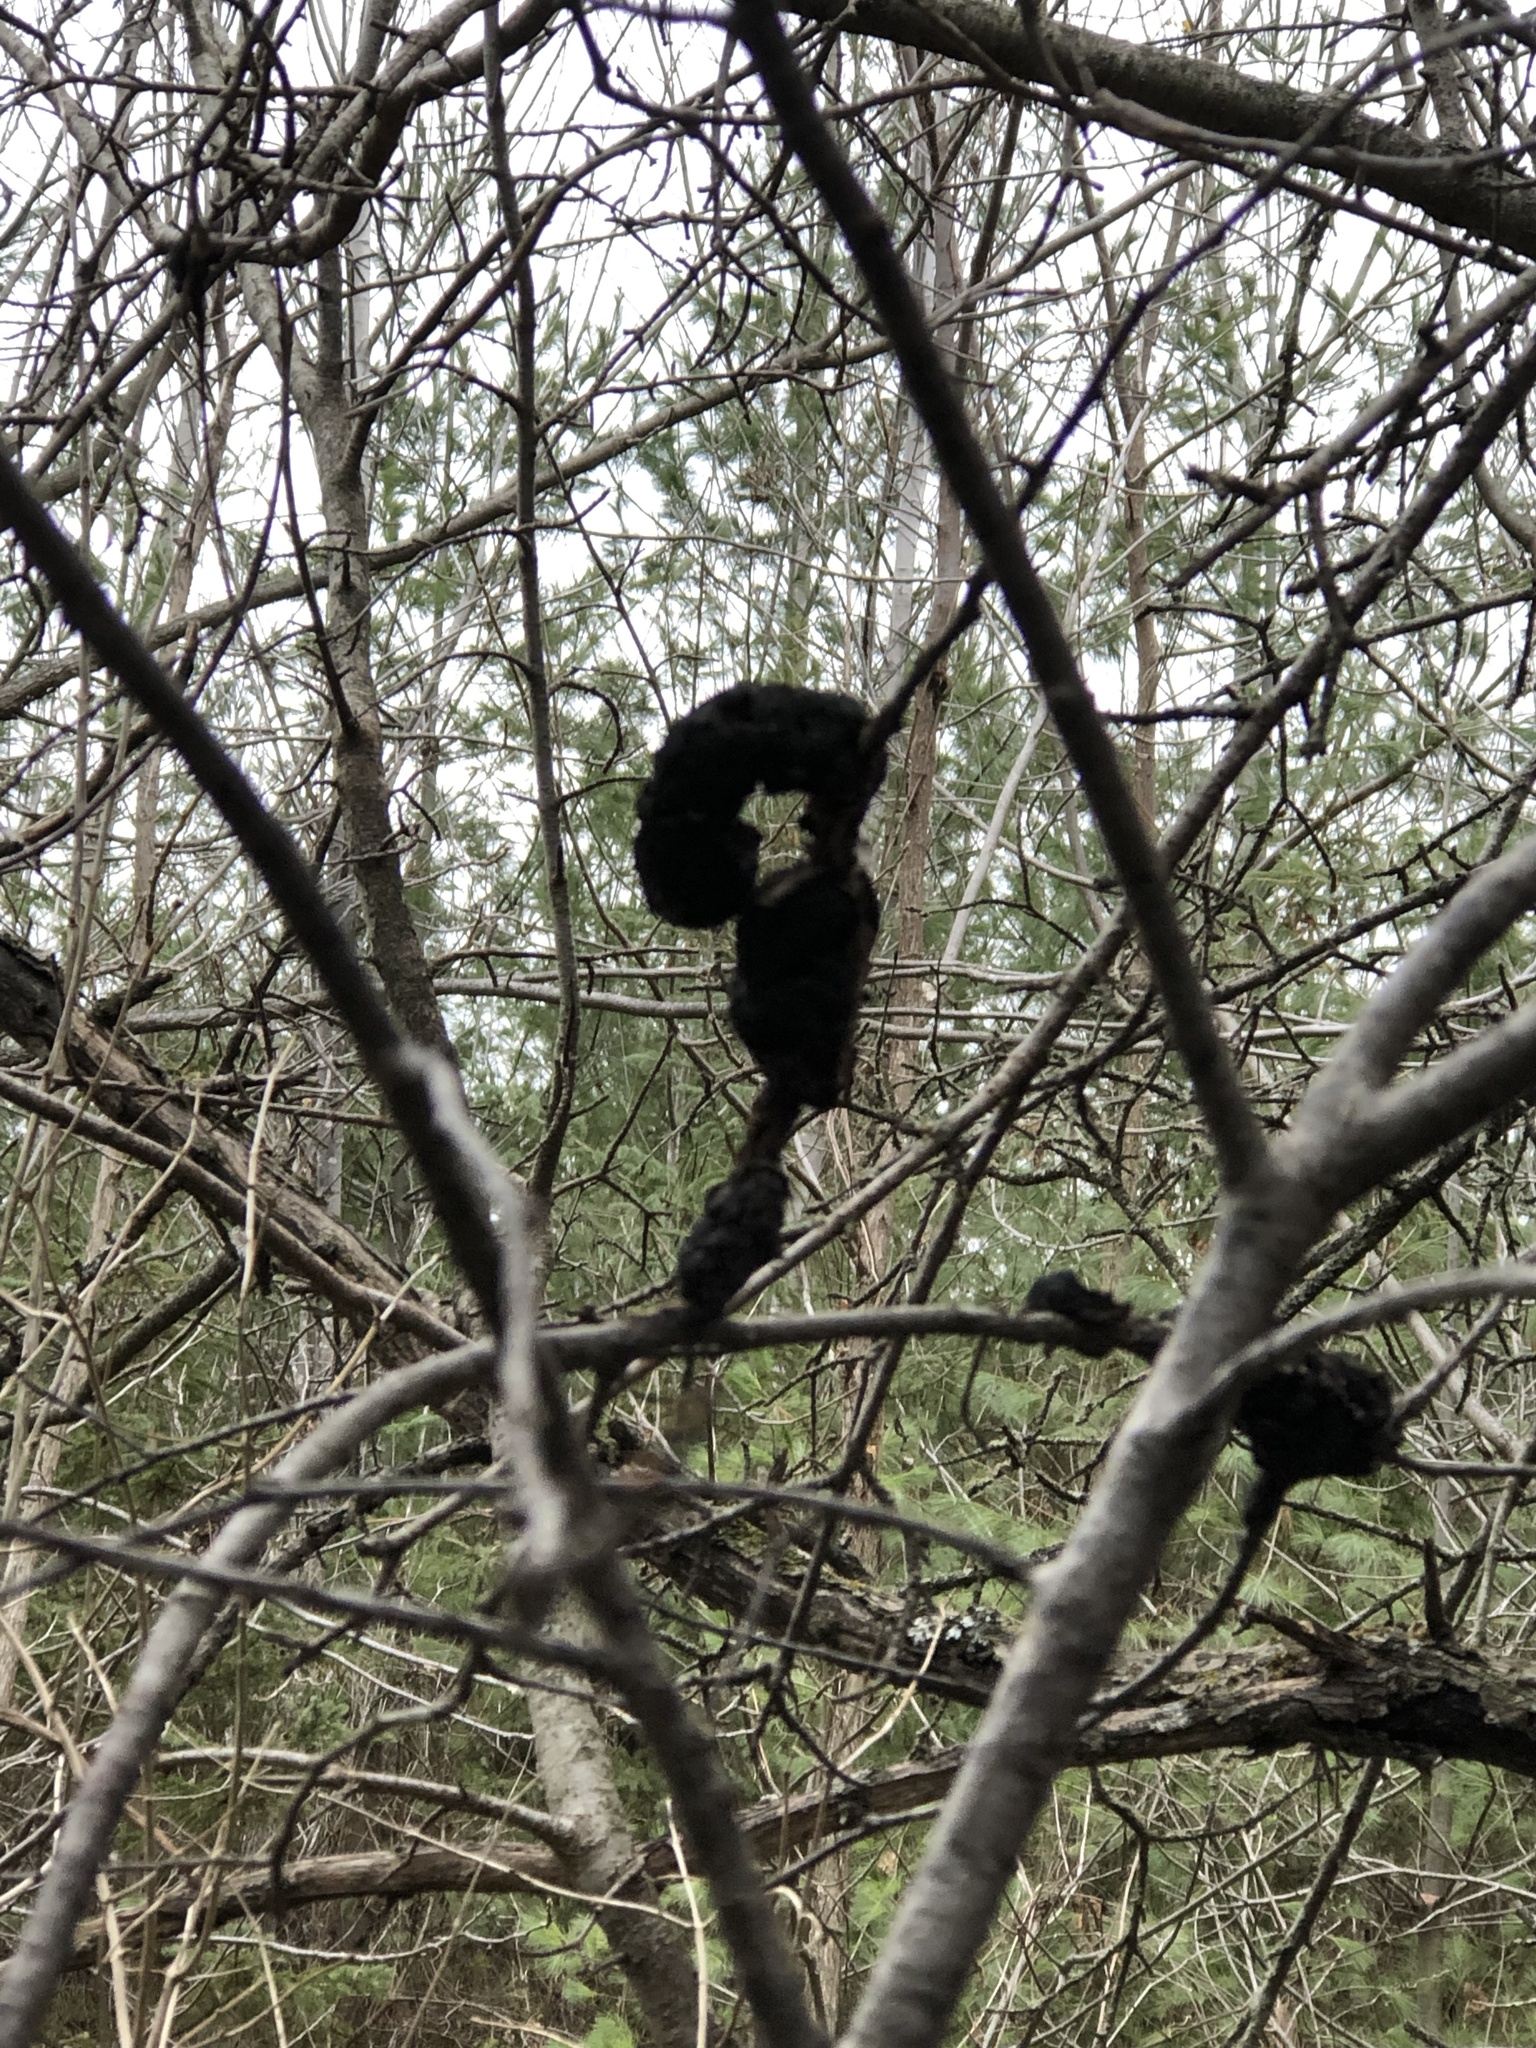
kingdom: Fungi
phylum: Ascomycota
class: Dothideomycetes
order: Venturiales
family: Venturiaceae
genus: Apiosporina
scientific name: Apiosporina morbosa
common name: Black knot
